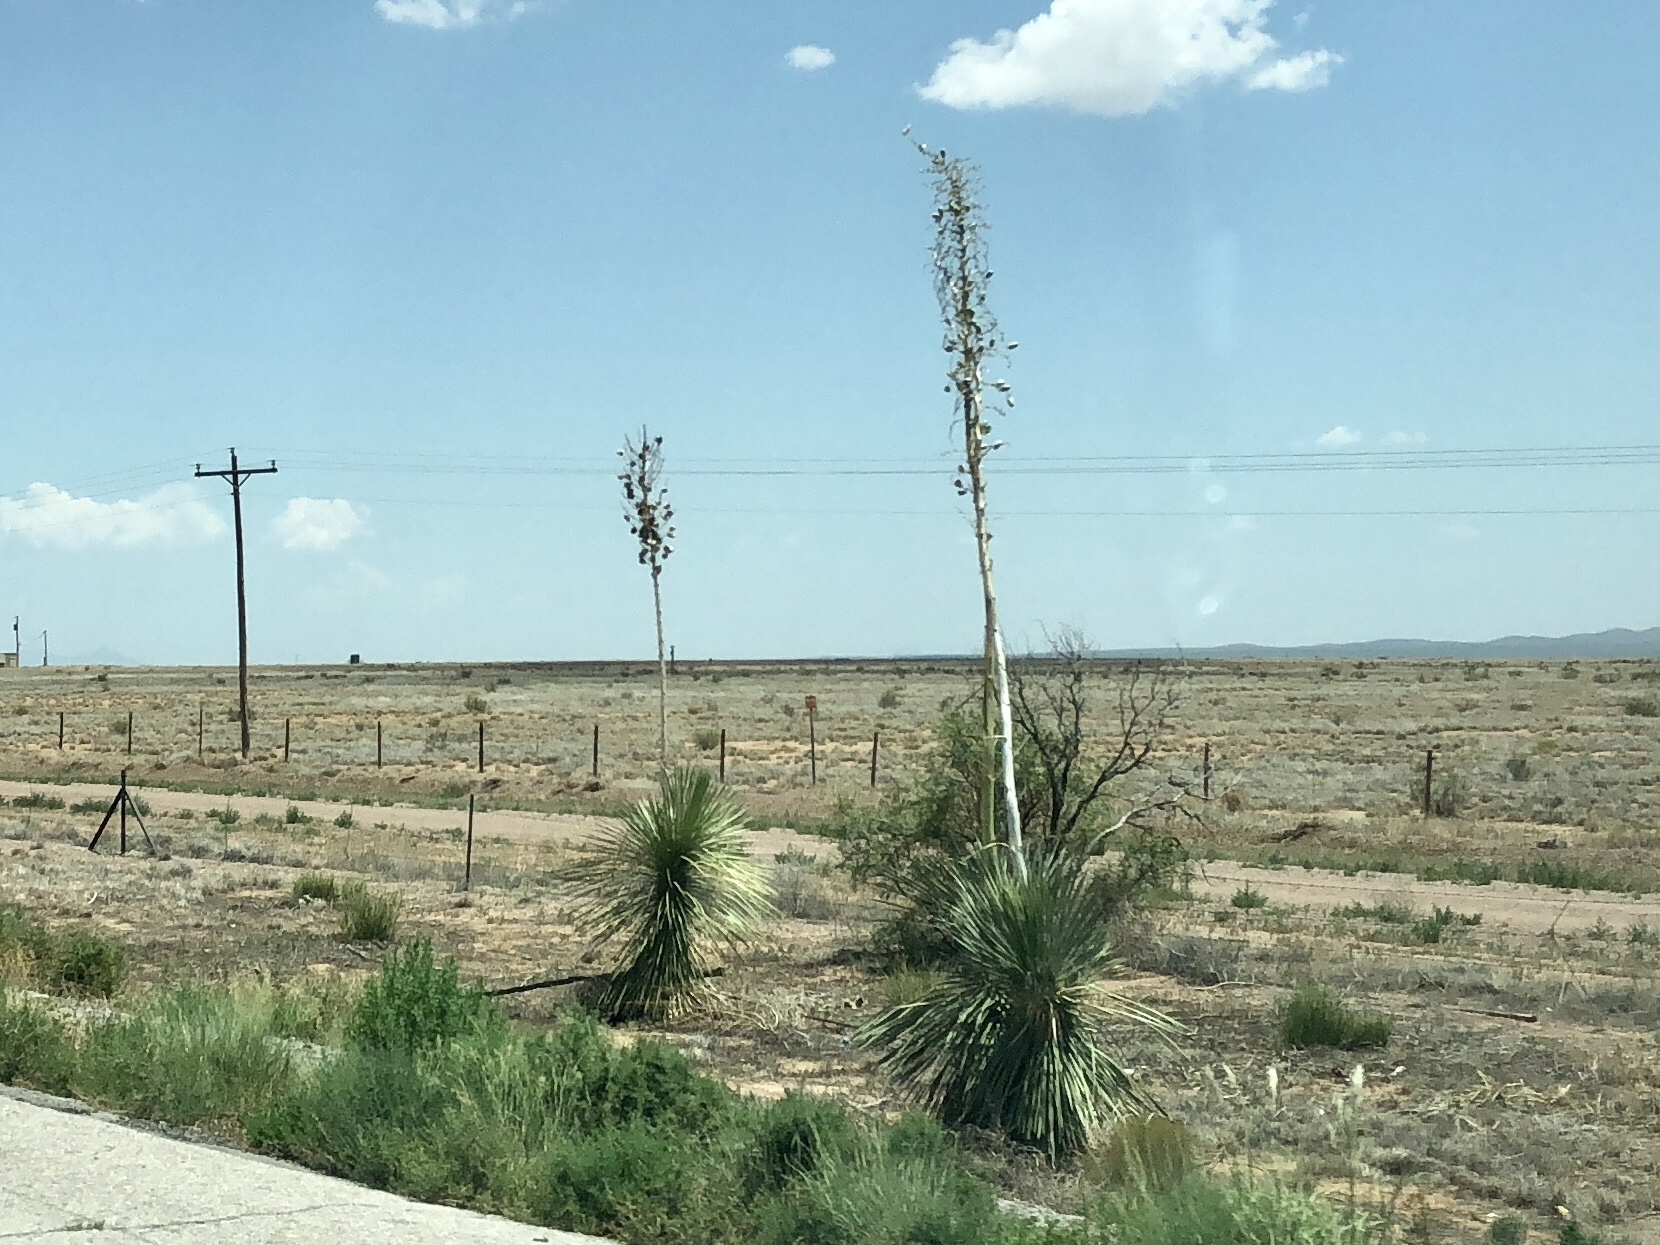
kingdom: Plantae
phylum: Tracheophyta
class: Liliopsida
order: Asparagales
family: Asparagaceae
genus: Yucca
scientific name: Yucca elata
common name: Palmella
